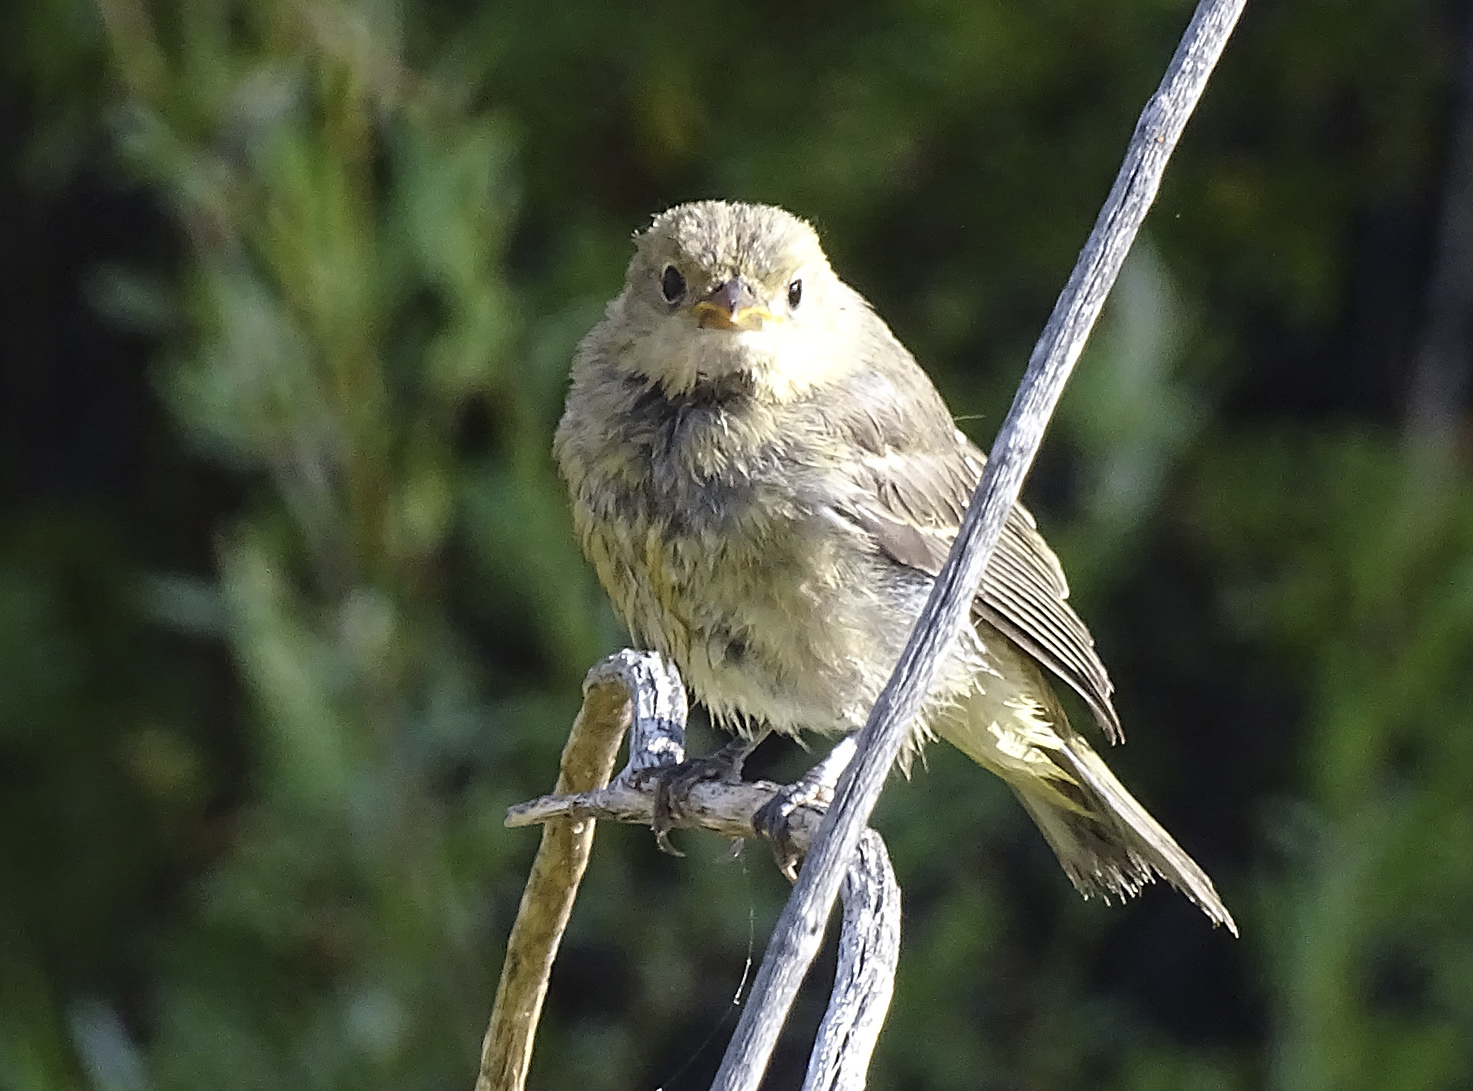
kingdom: Animalia
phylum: Chordata
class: Aves
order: Passeriformes
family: Cardinalidae
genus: Piranga
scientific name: Piranga ludoviciana
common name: Western tanager
